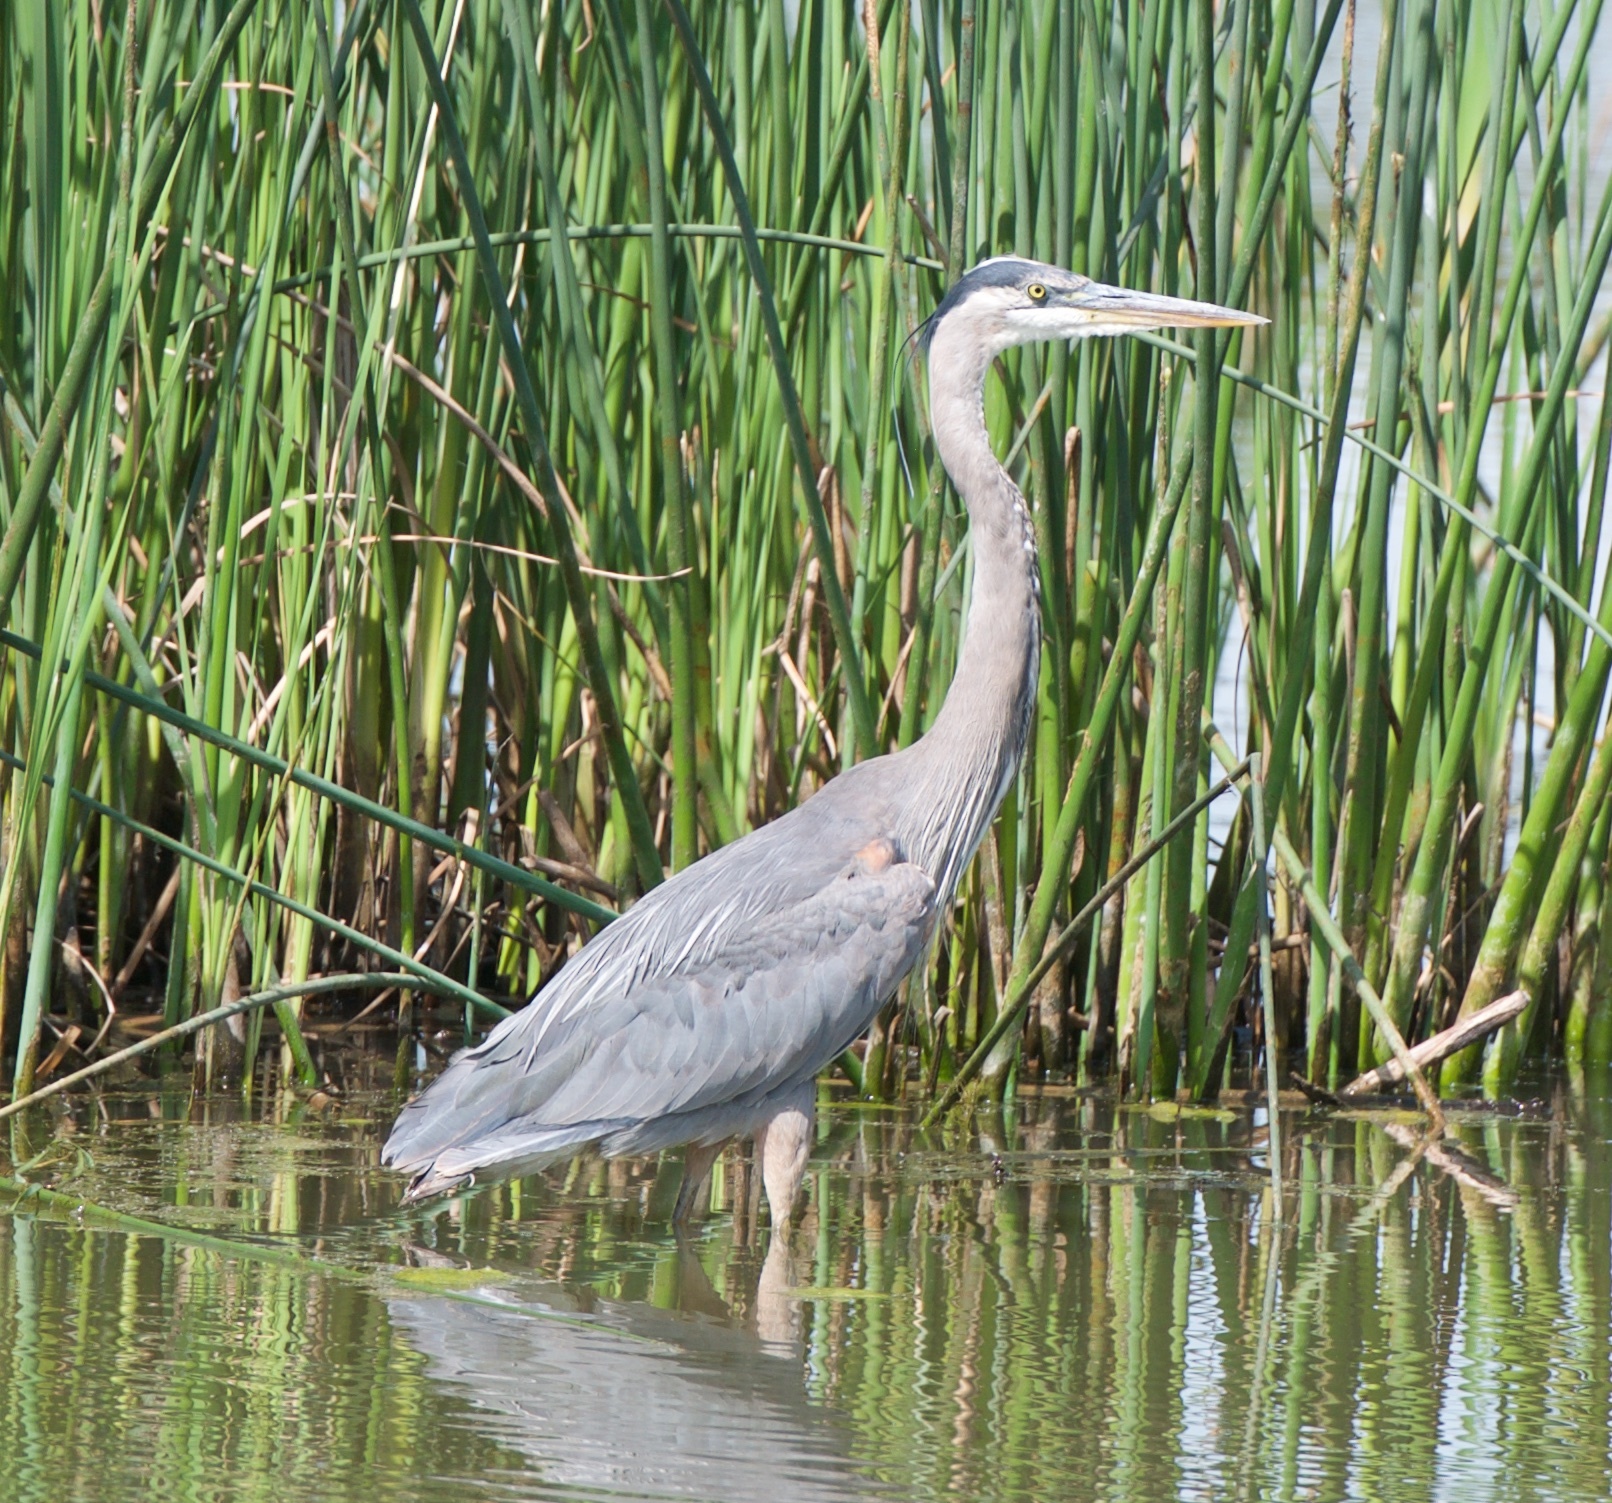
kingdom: Animalia
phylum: Chordata
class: Aves
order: Pelecaniformes
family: Ardeidae
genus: Ardea
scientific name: Ardea herodias
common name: Great blue heron
